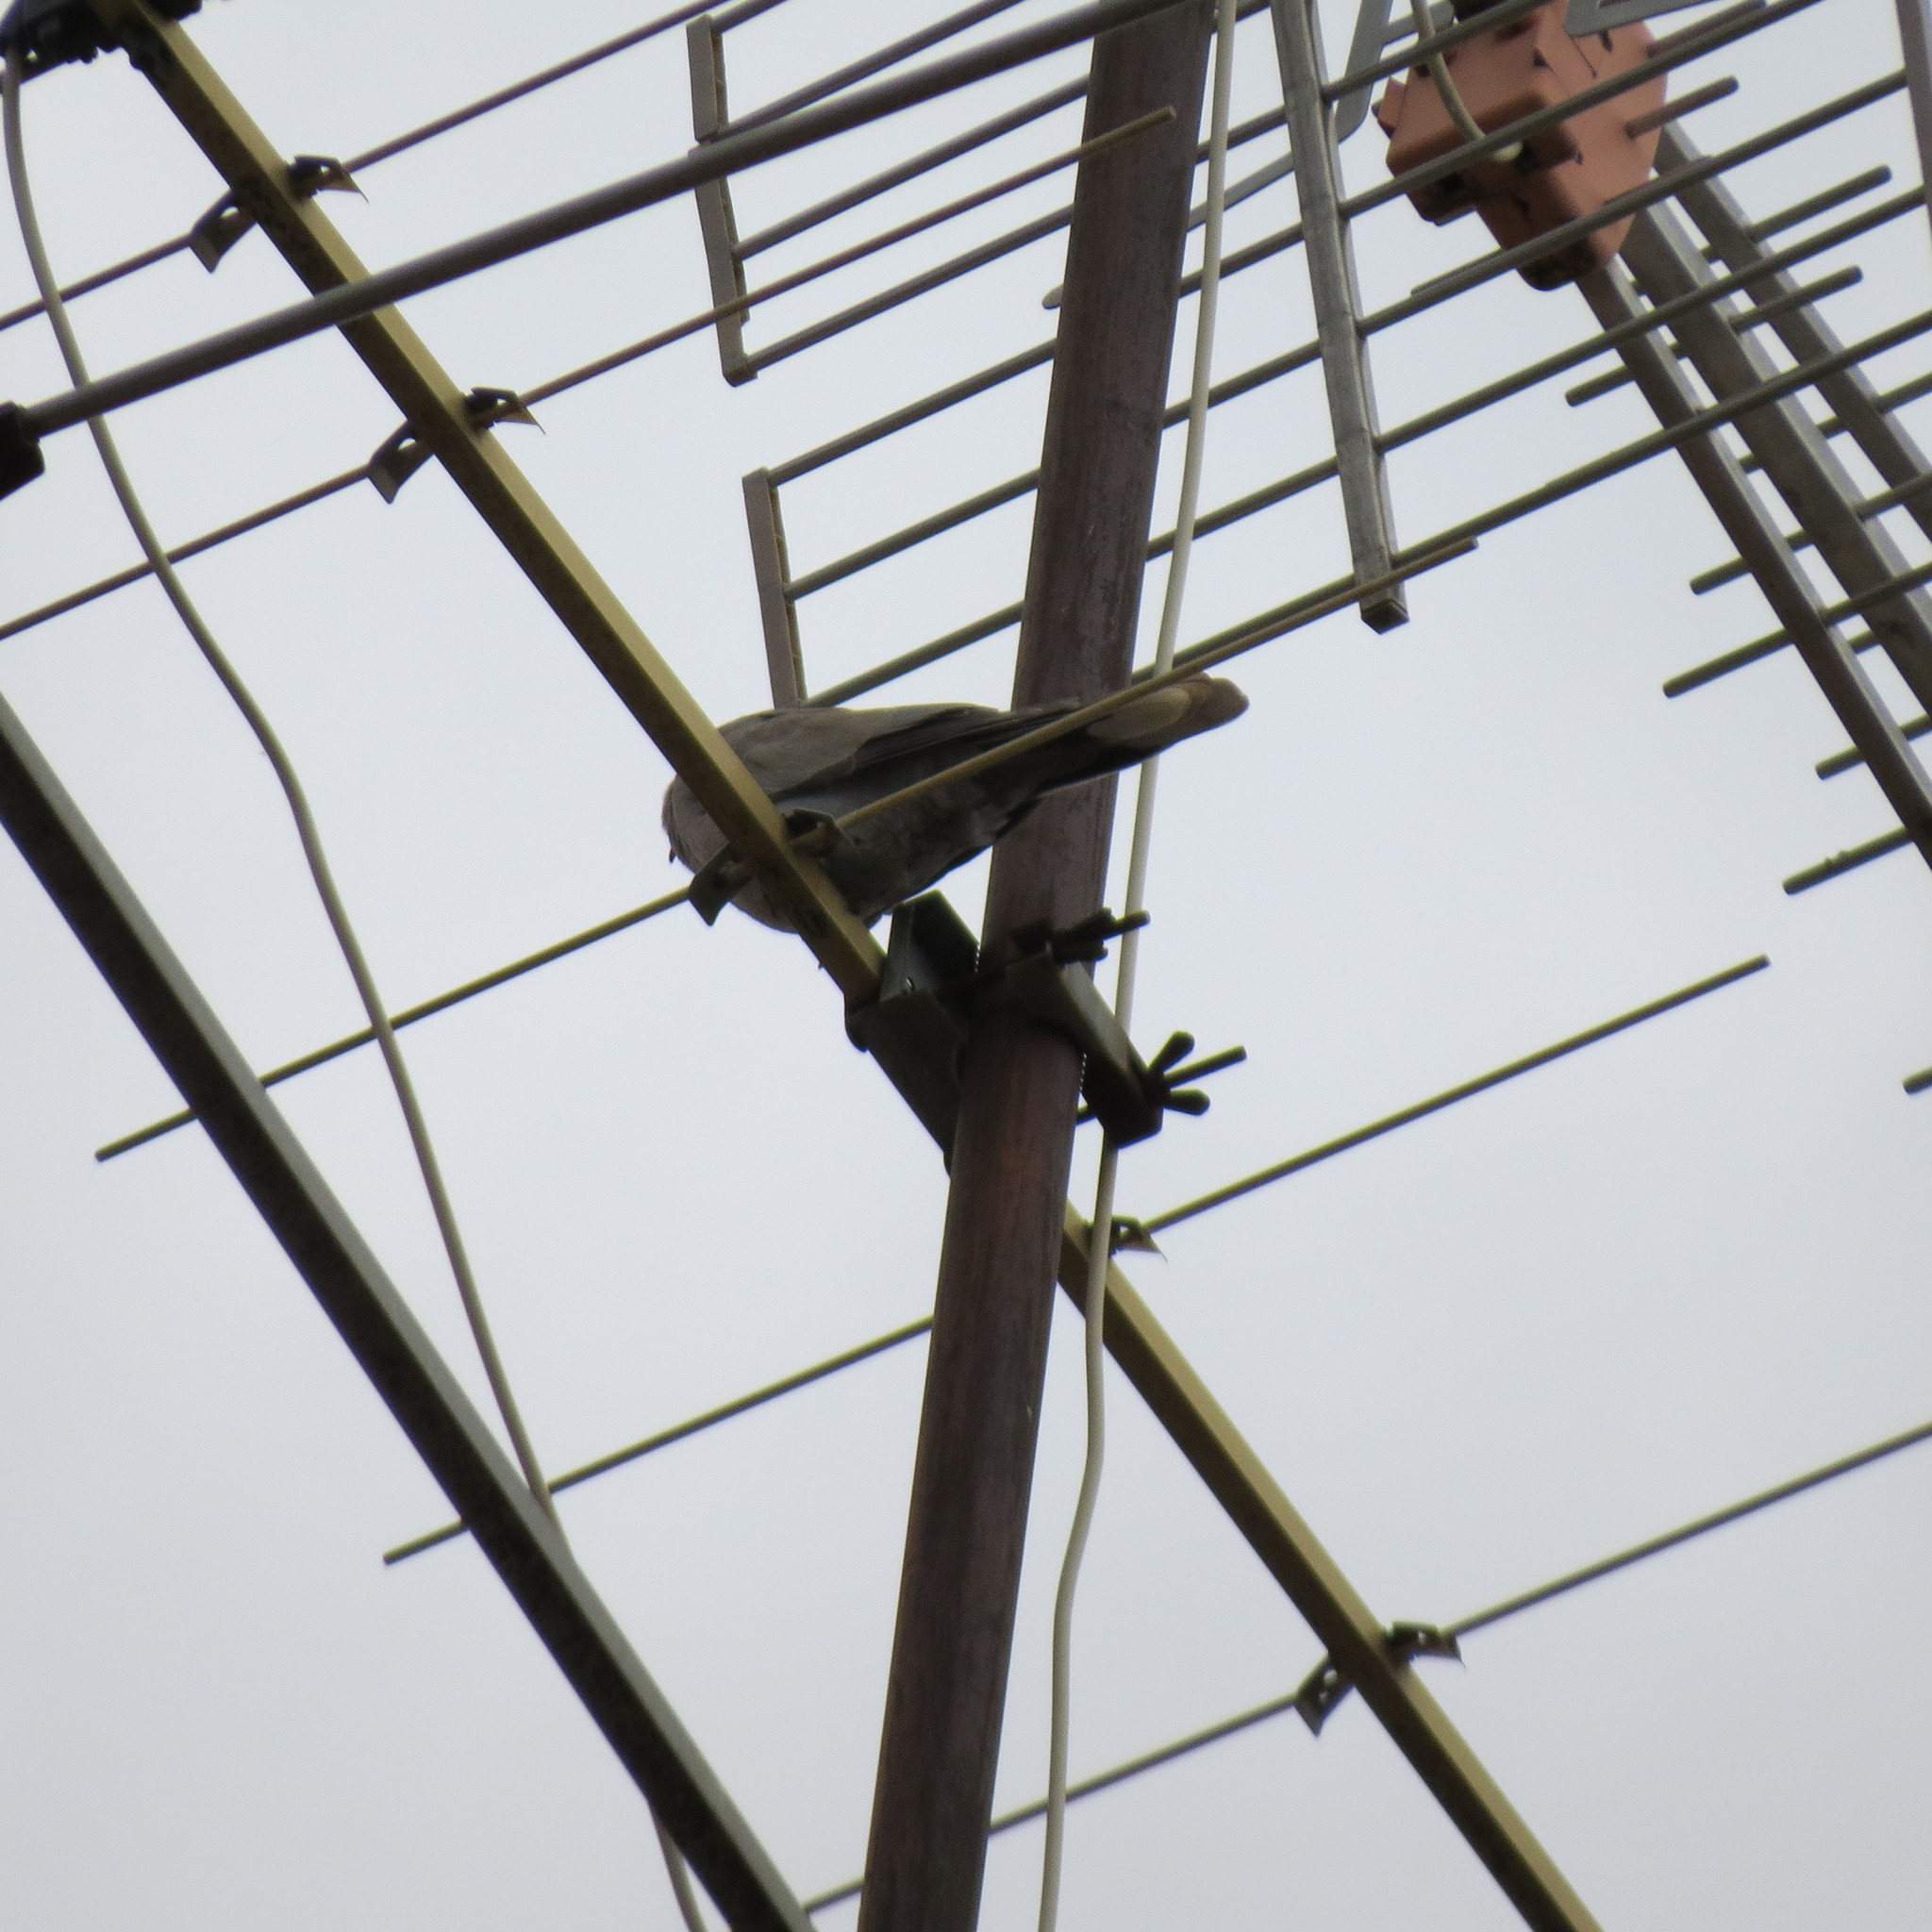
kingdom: Animalia
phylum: Chordata
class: Aves
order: Columbiformes
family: Columbidae
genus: Streptopelia
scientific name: Streptopelia decaocto
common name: Eurasian collared dove
